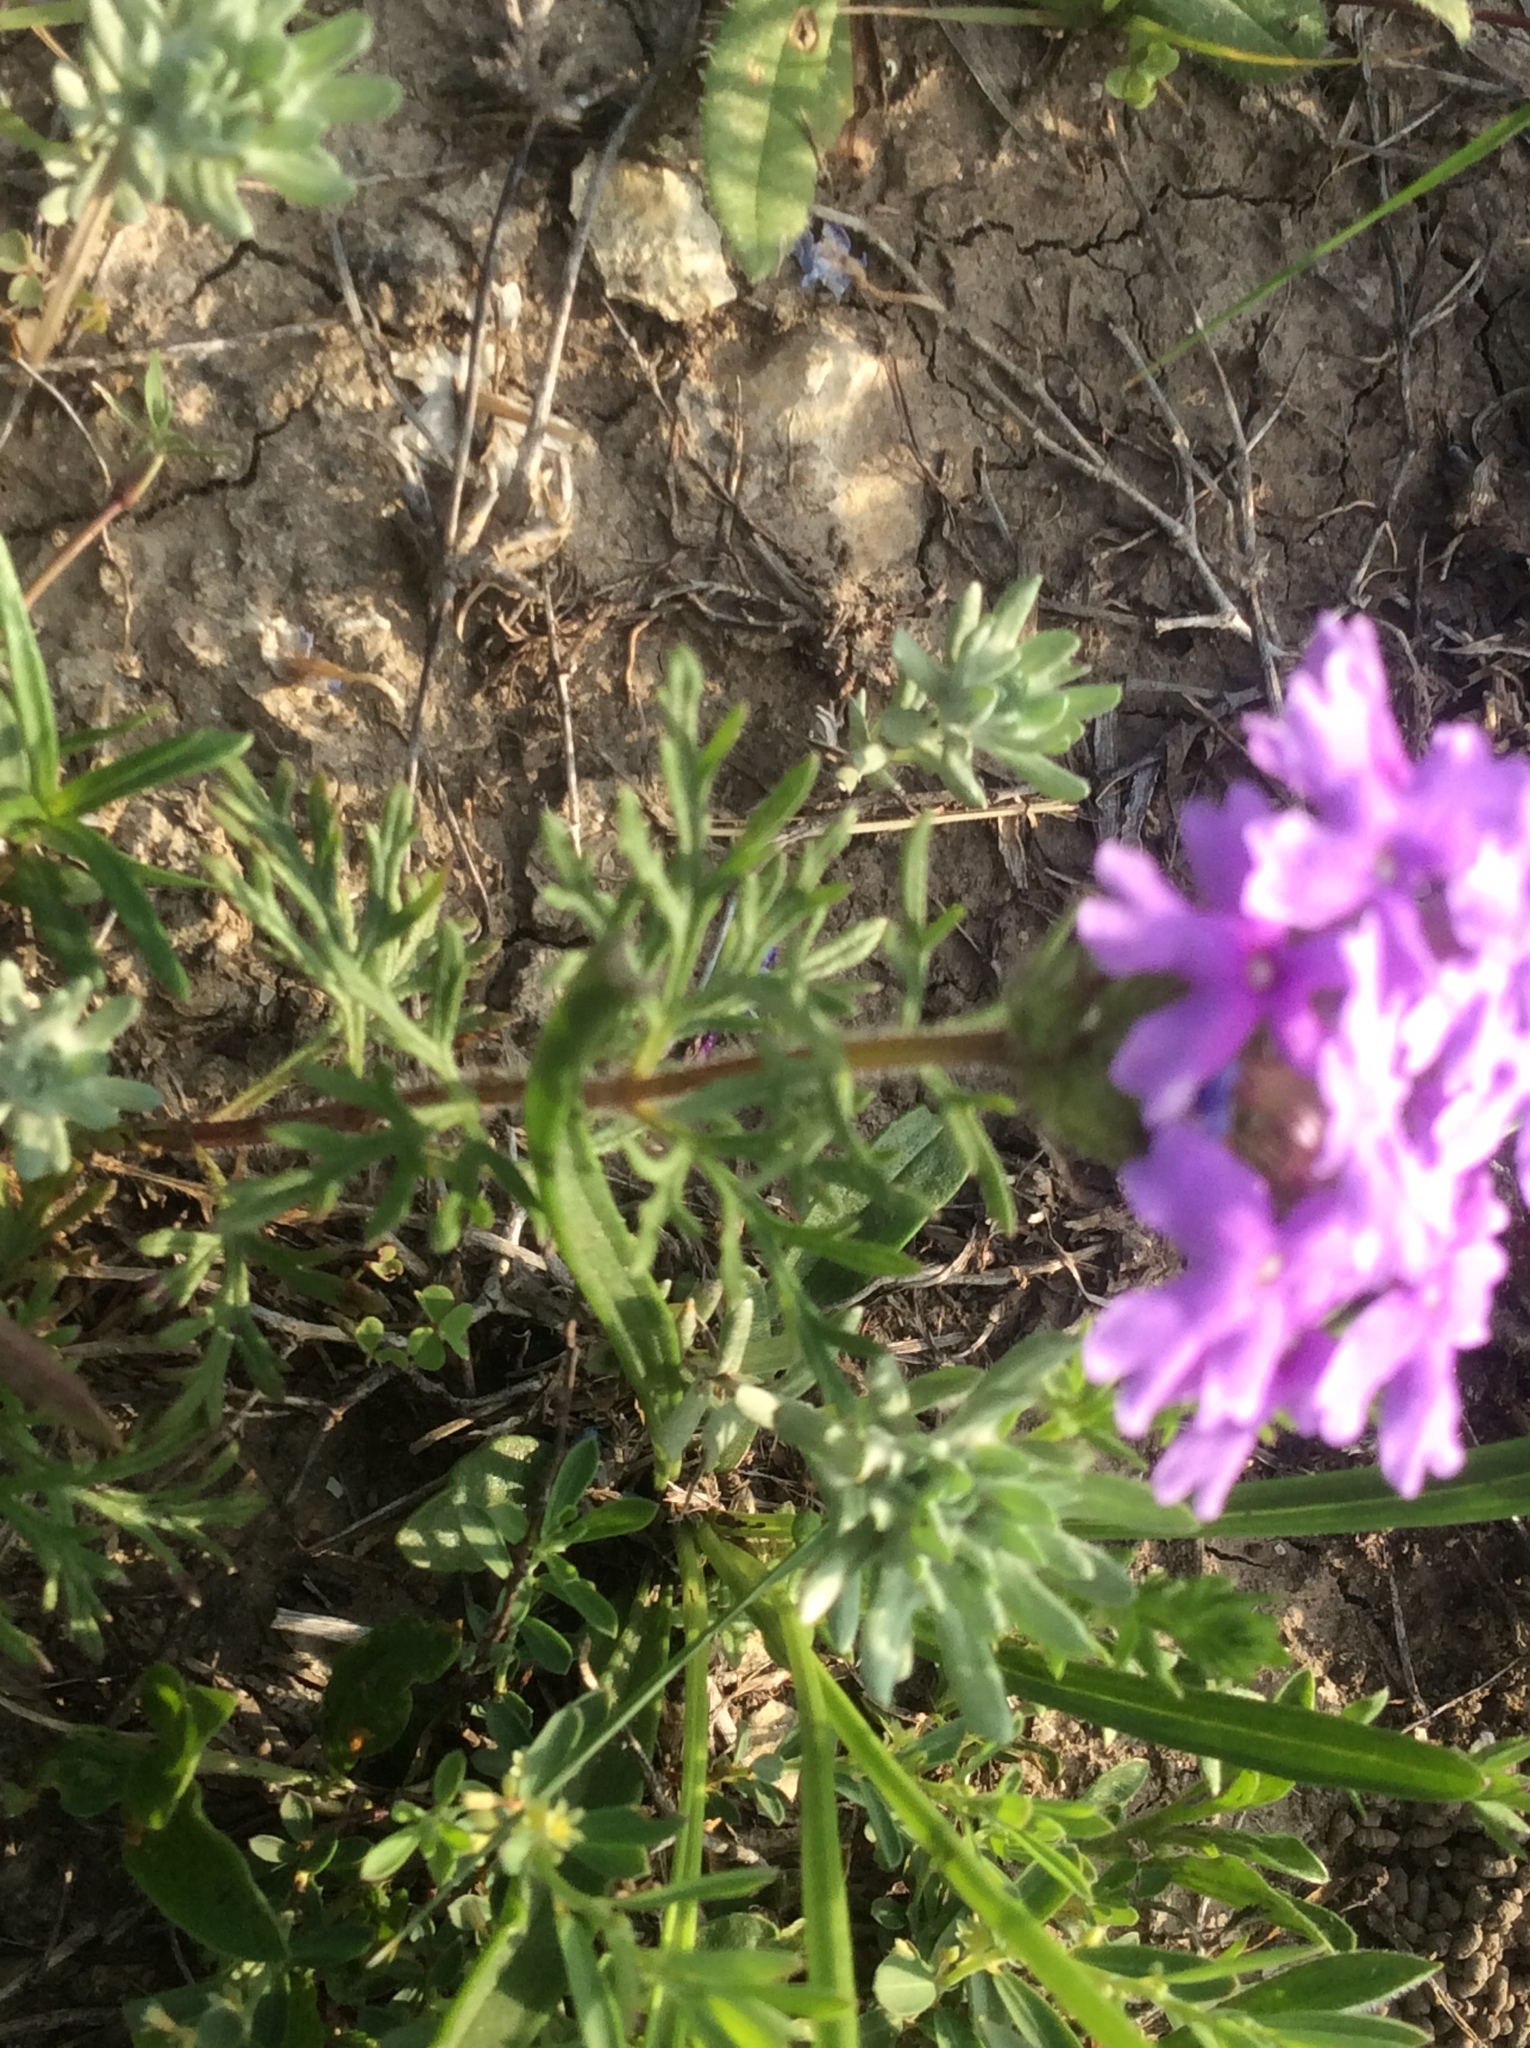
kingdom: Plantae
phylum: Tracheophyta
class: Magnoliopsida
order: Lamiales
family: Verbenaceae
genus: Verbena
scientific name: Verbena bipinnatifida
